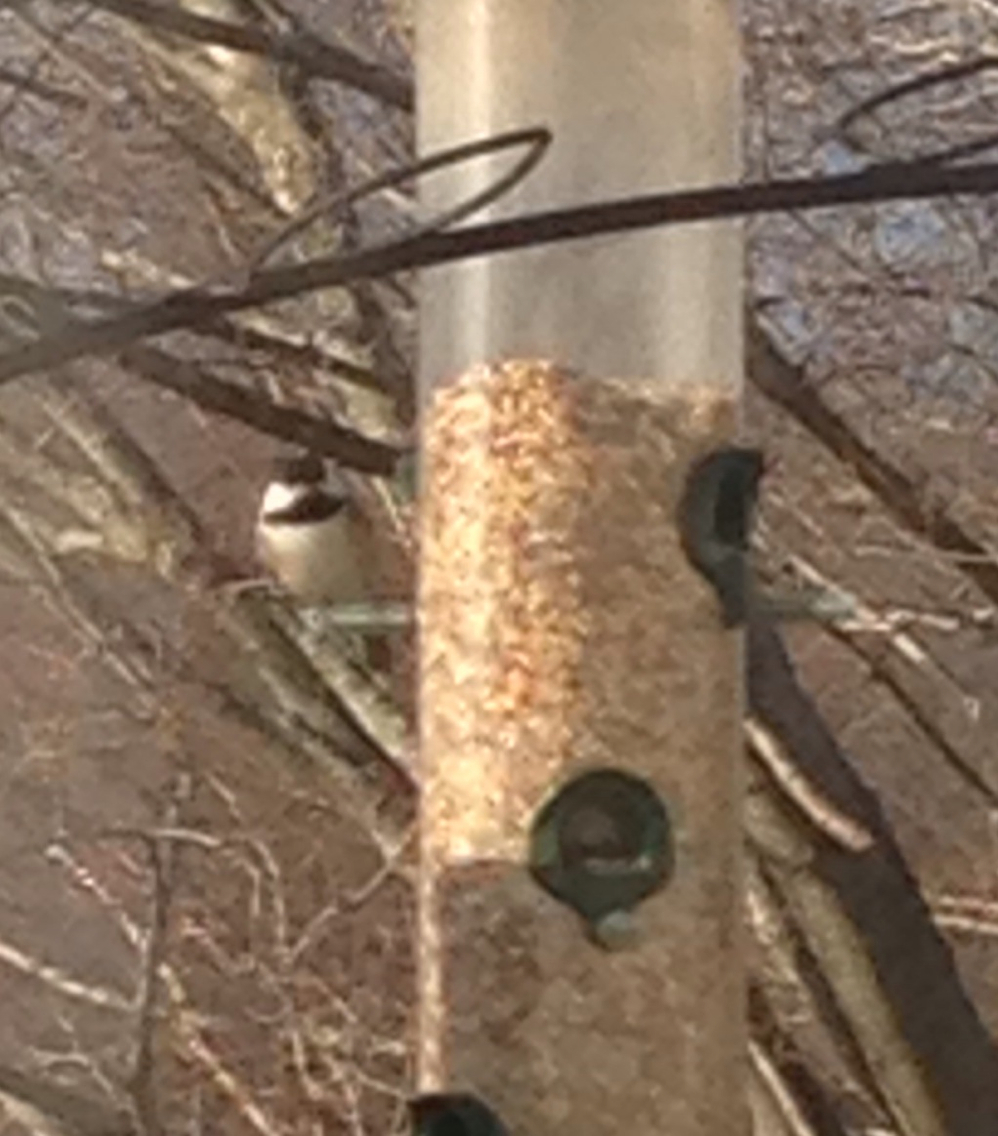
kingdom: Animalia
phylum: Chordata
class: Aves
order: Passeriformes
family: Paridae
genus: Poecile
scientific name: Poecile atricapillus
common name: Black-capped chickadee
